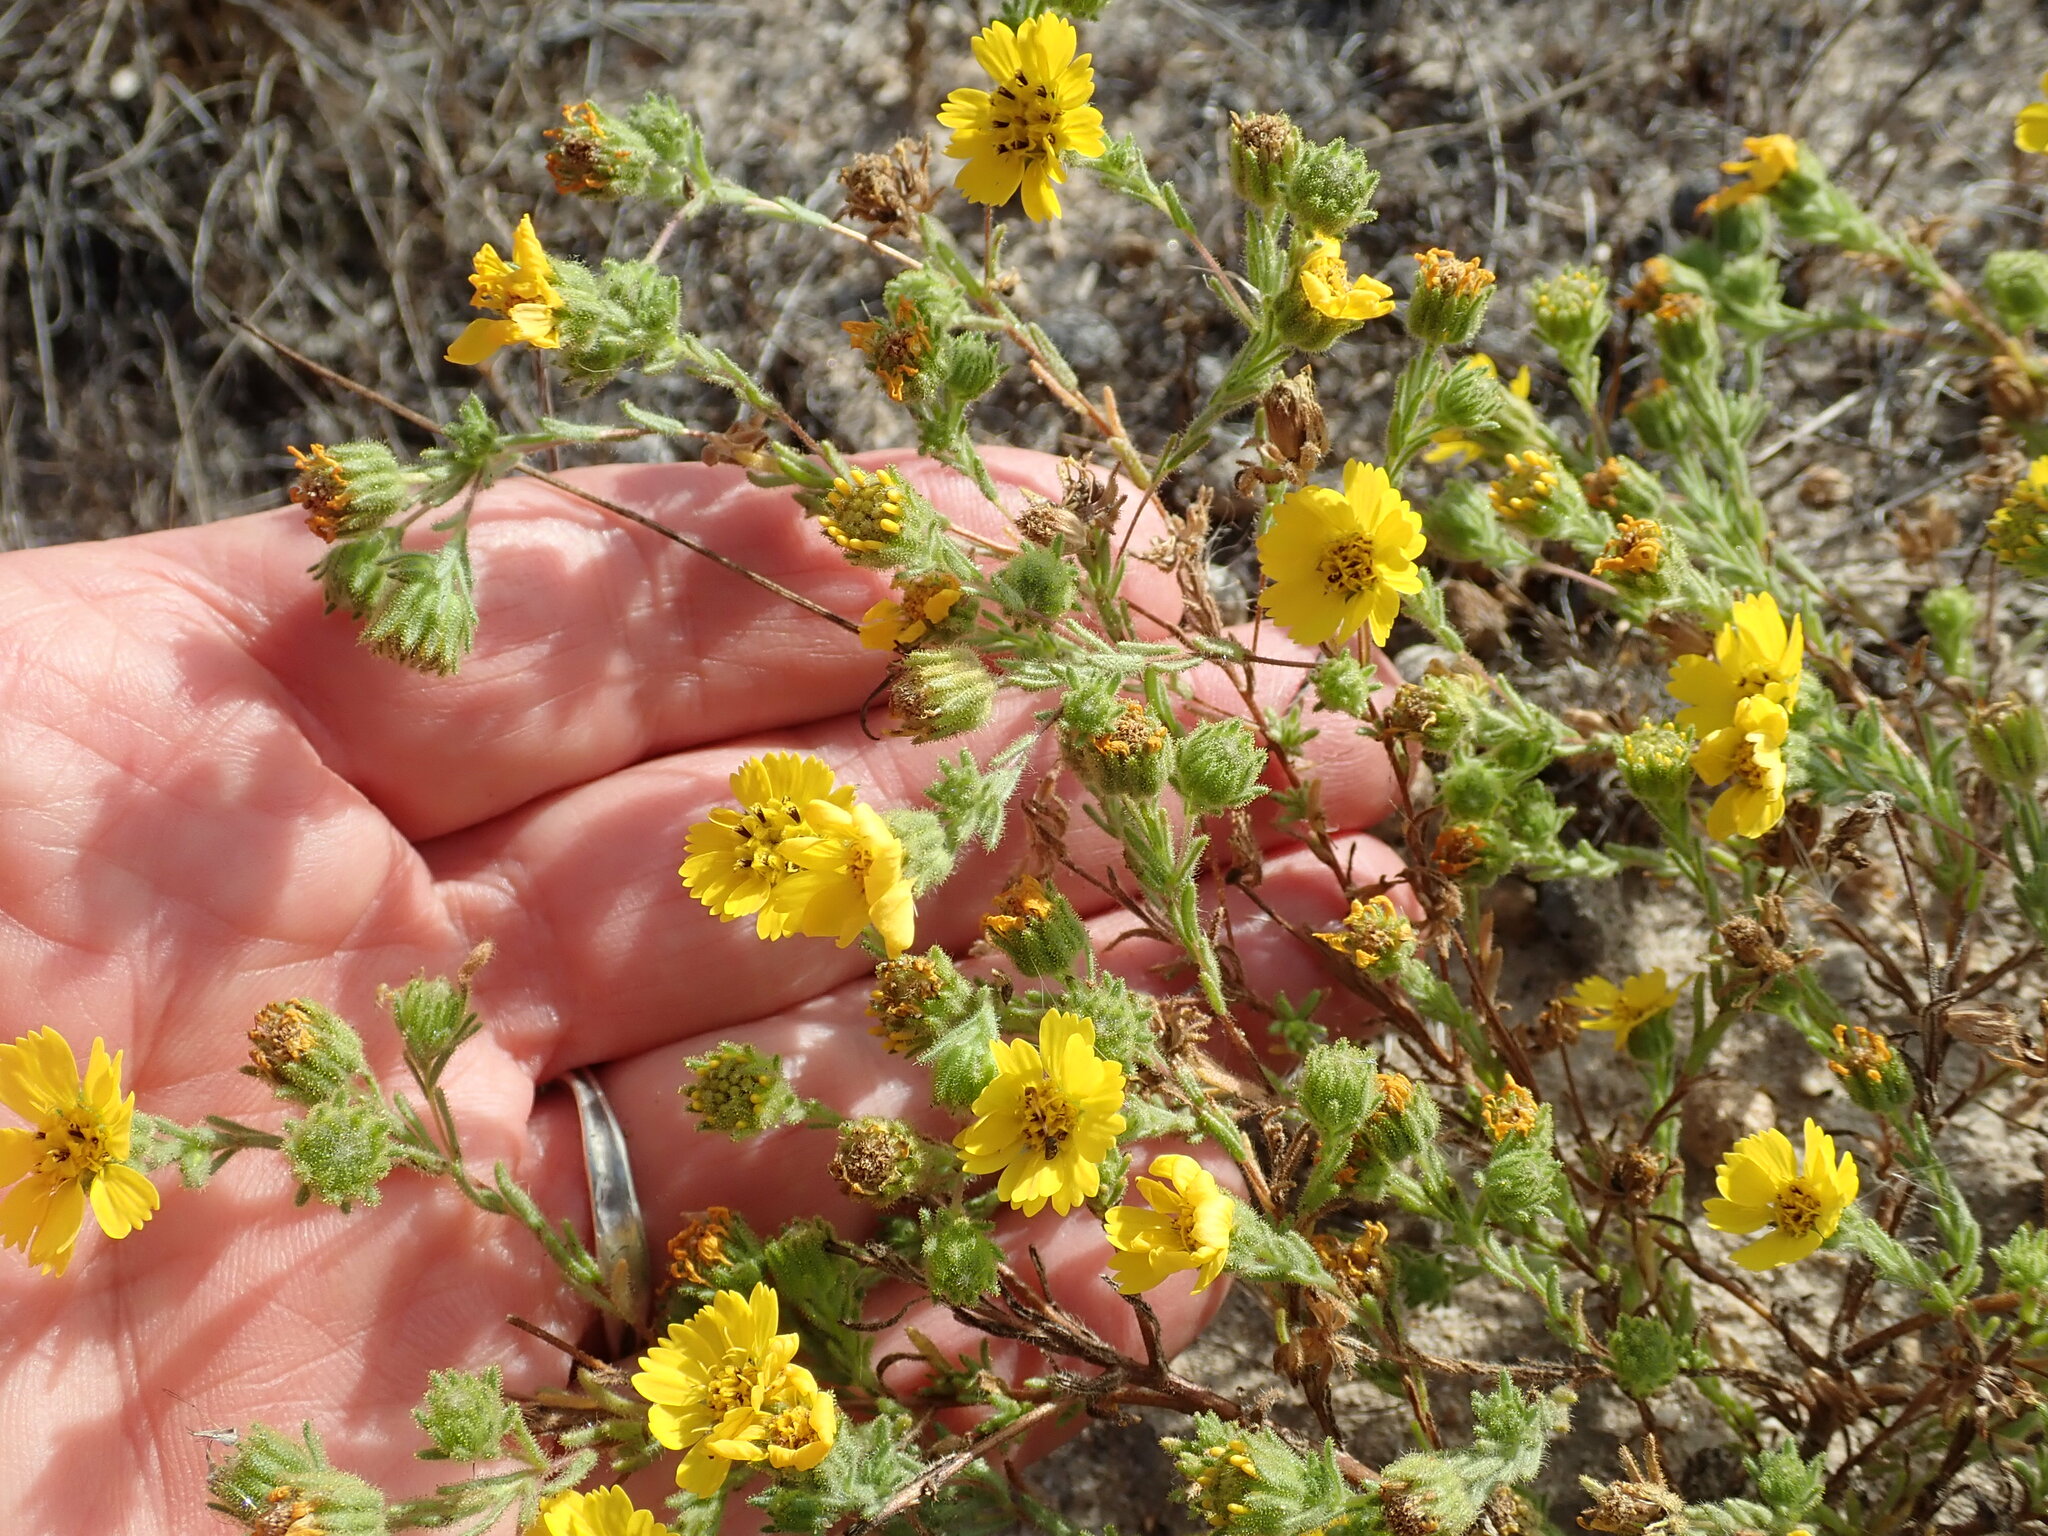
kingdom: Plantae
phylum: Tracheophyta
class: Magnoliopsida
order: Asterales
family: Asteraceae
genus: Deinandra
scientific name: Deinandra corymbosa
